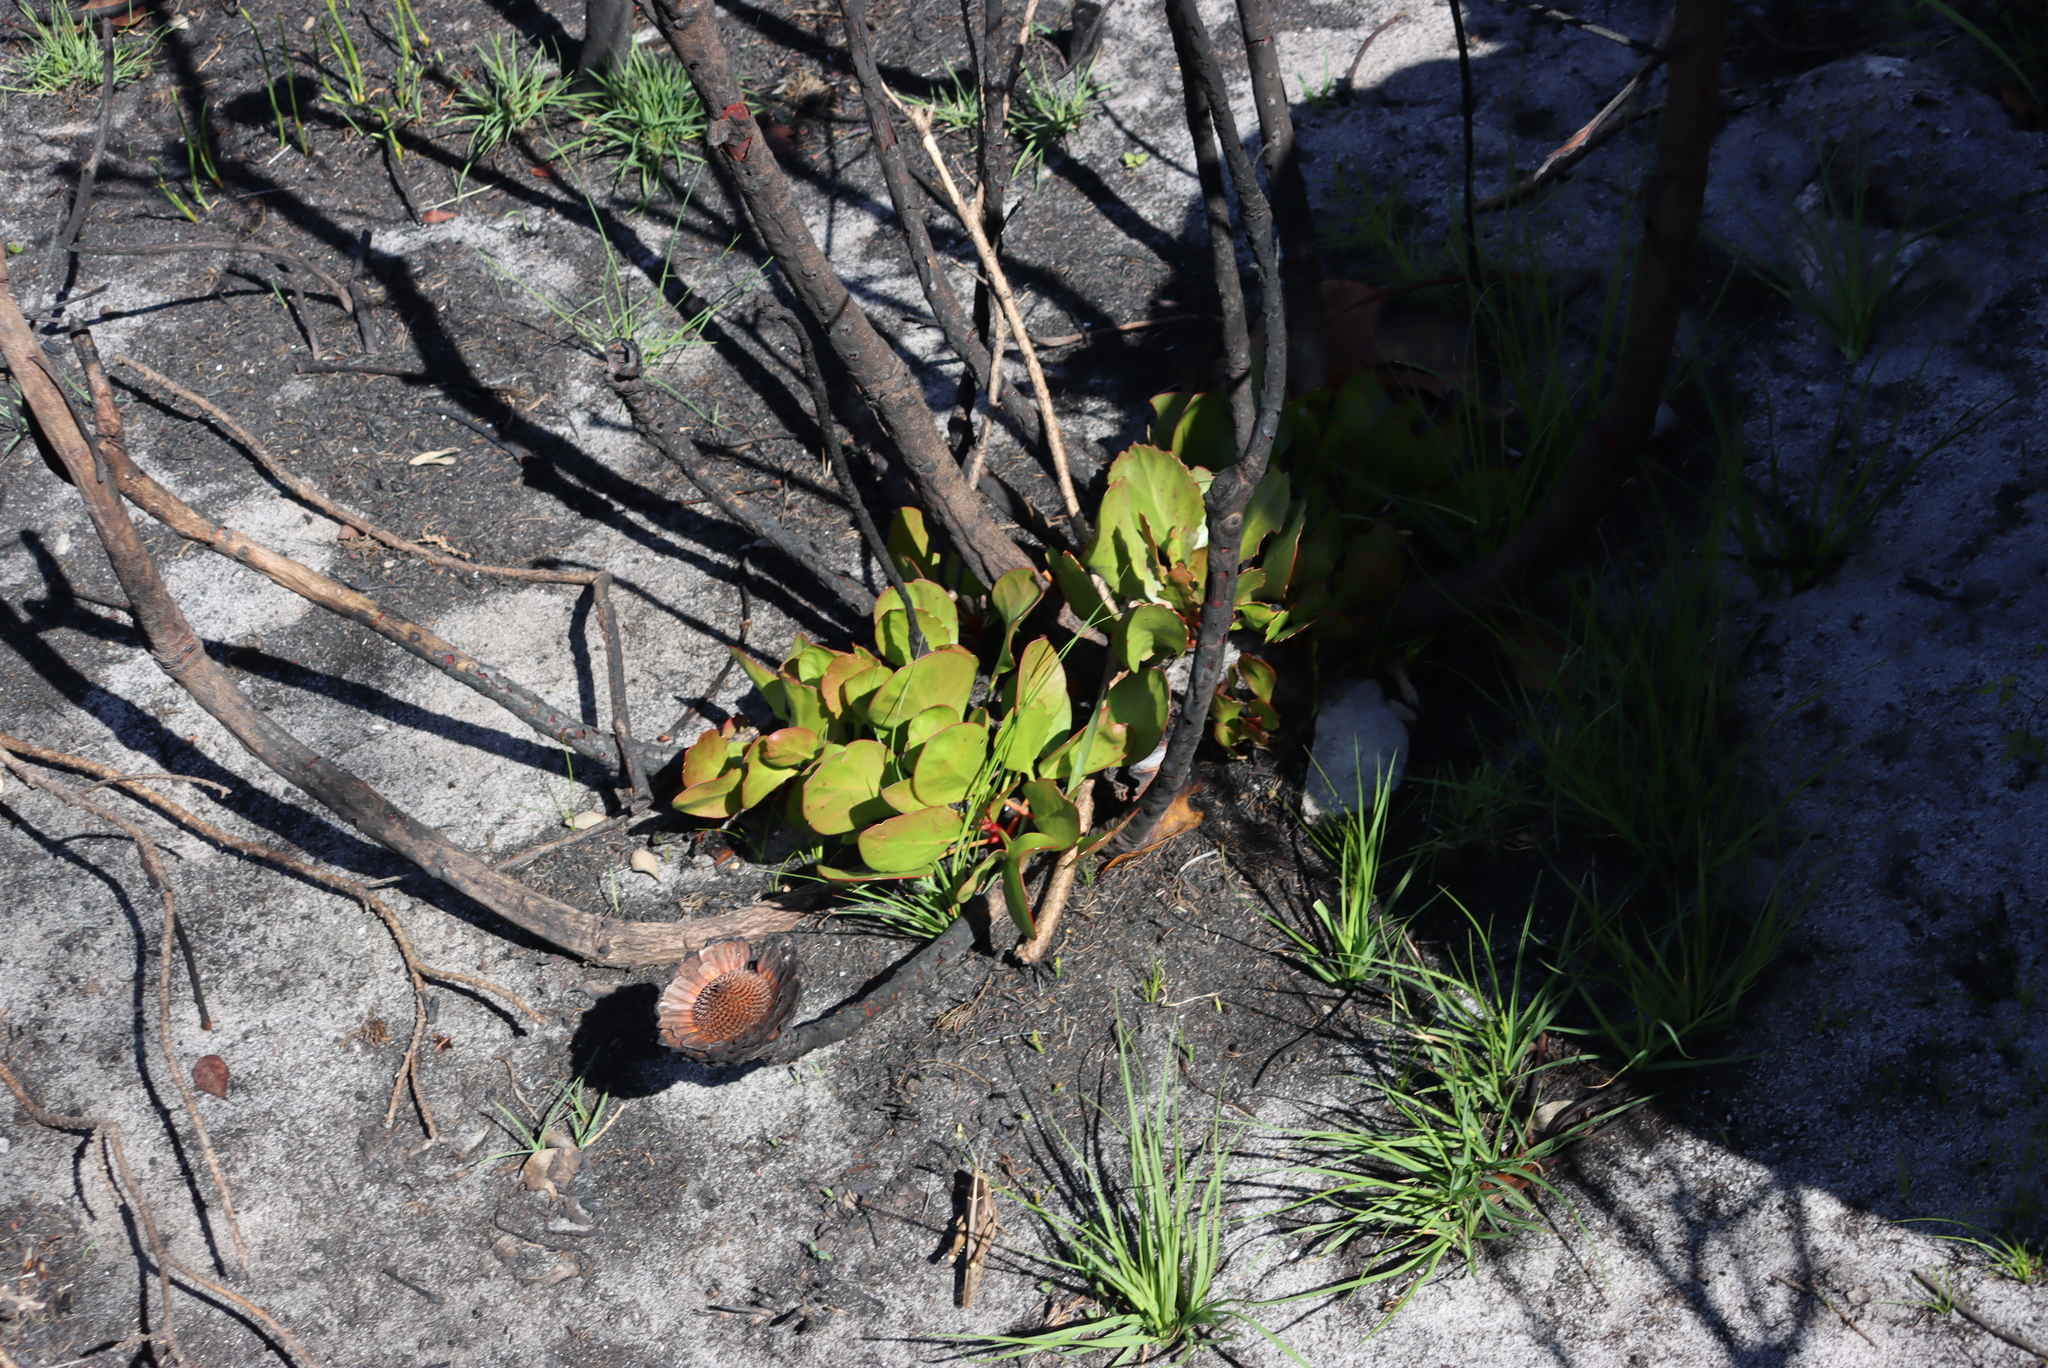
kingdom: Plantae
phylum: Tracheophyta
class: Magnoliopsida
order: Proteales
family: Proteaceae
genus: Protea
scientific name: Protea cynaroides
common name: King protea
